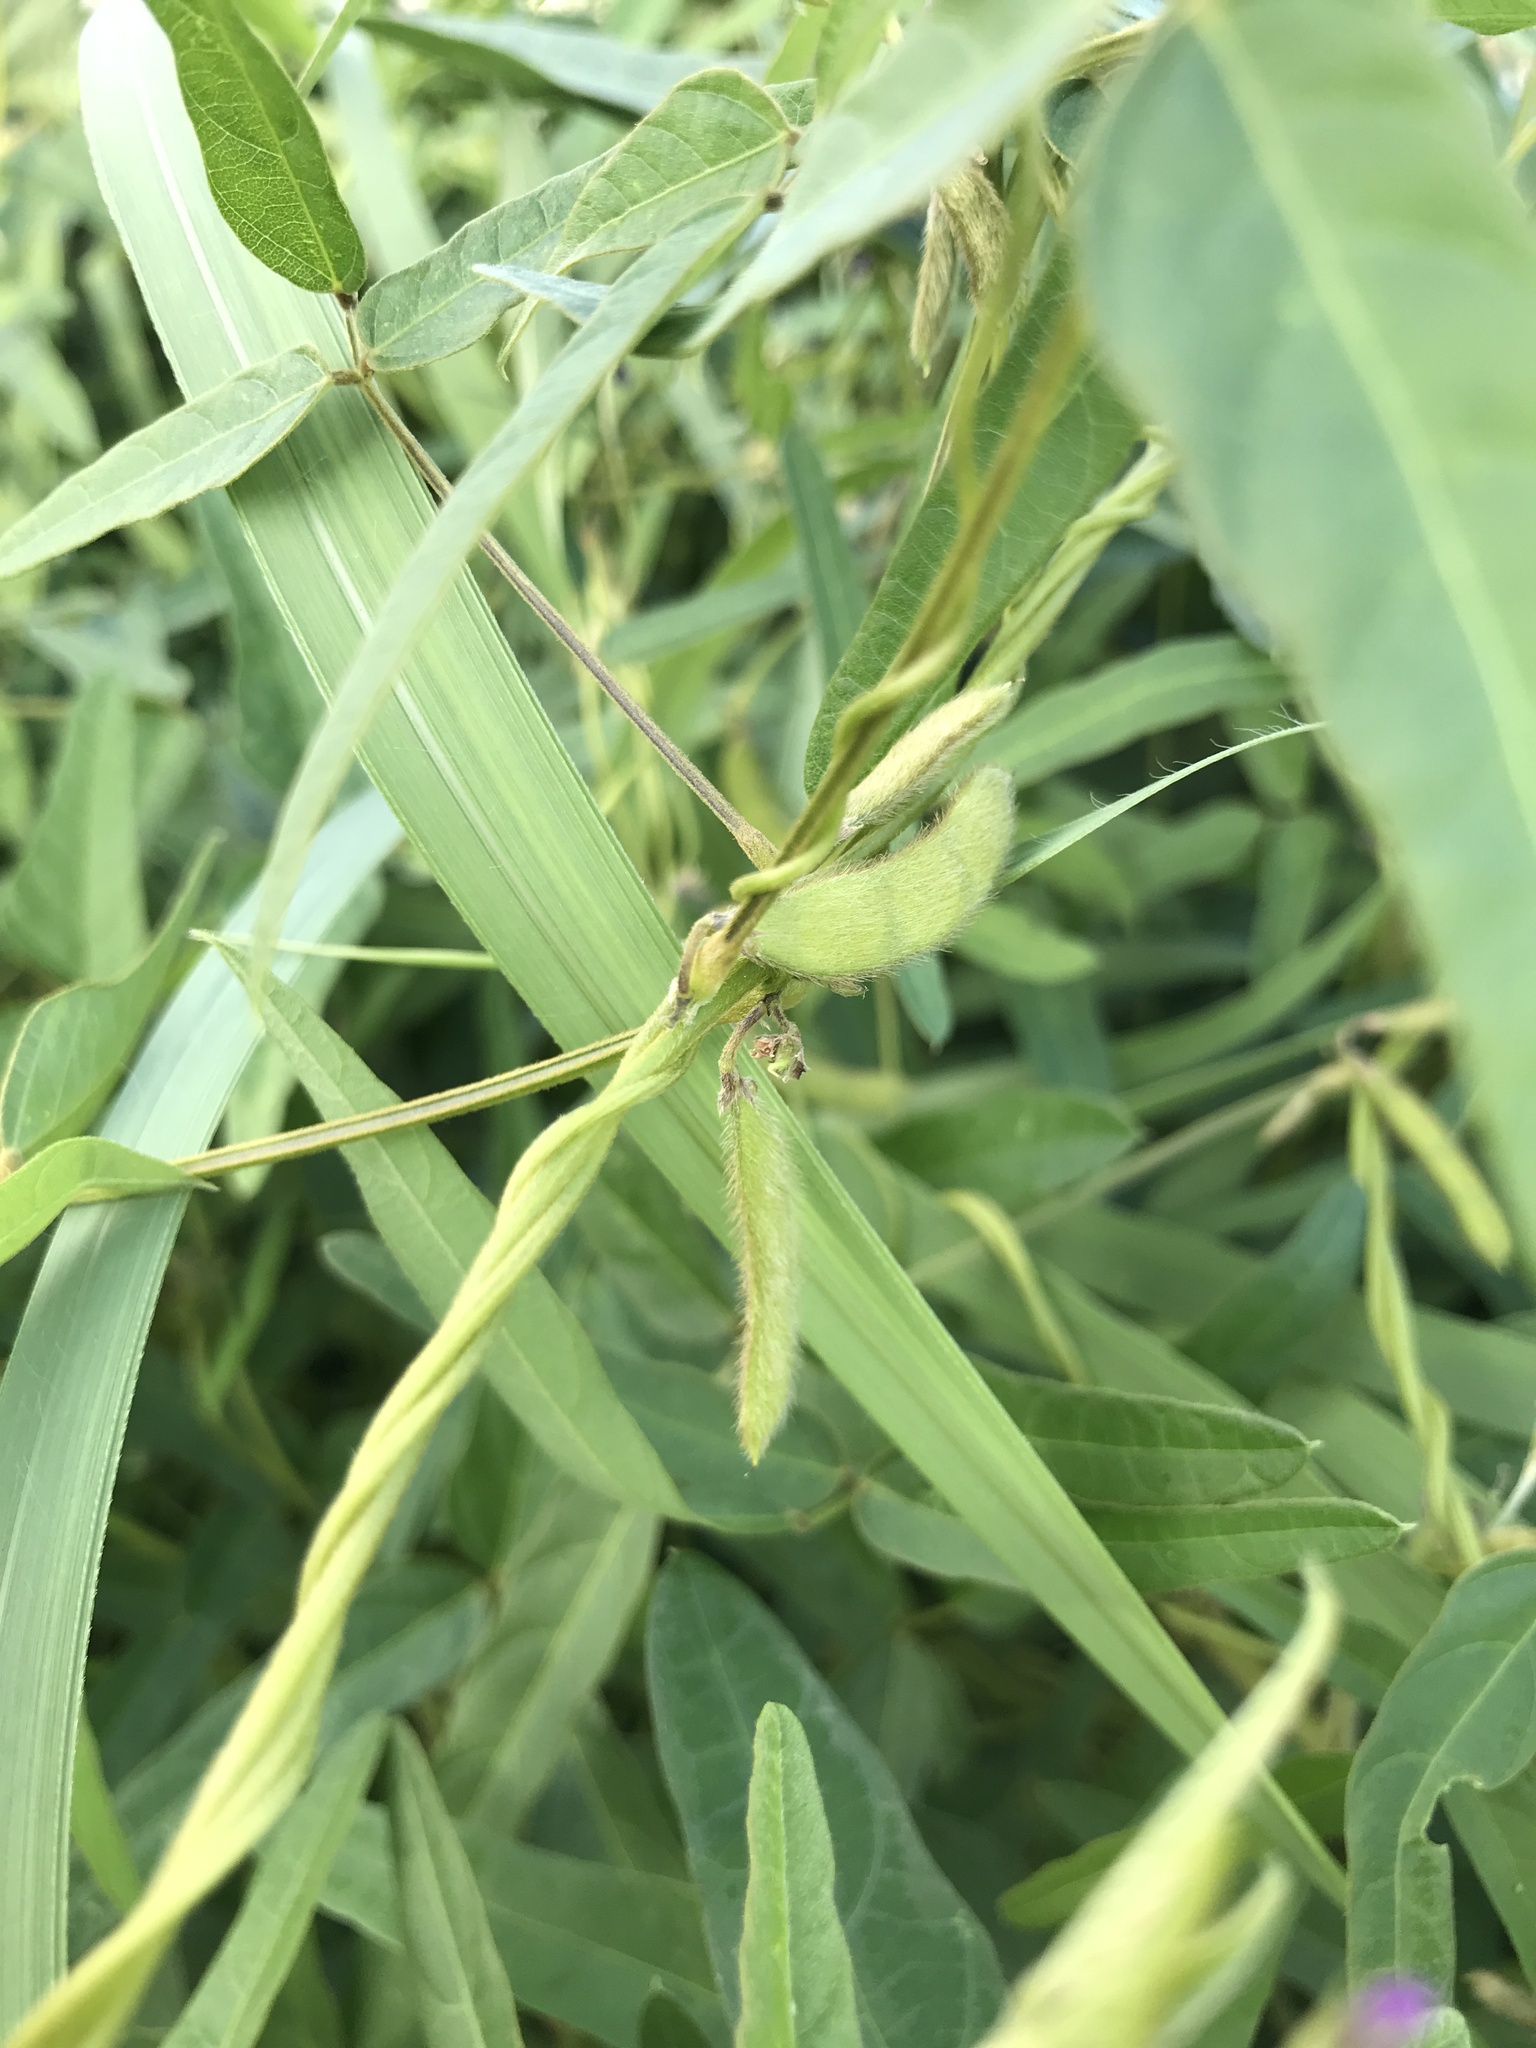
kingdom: Plantae
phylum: Tracheophyta
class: Magnoliopsida
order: Fabales
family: Fabaceae
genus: Glycine
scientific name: Glycine max
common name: Soya-bean
